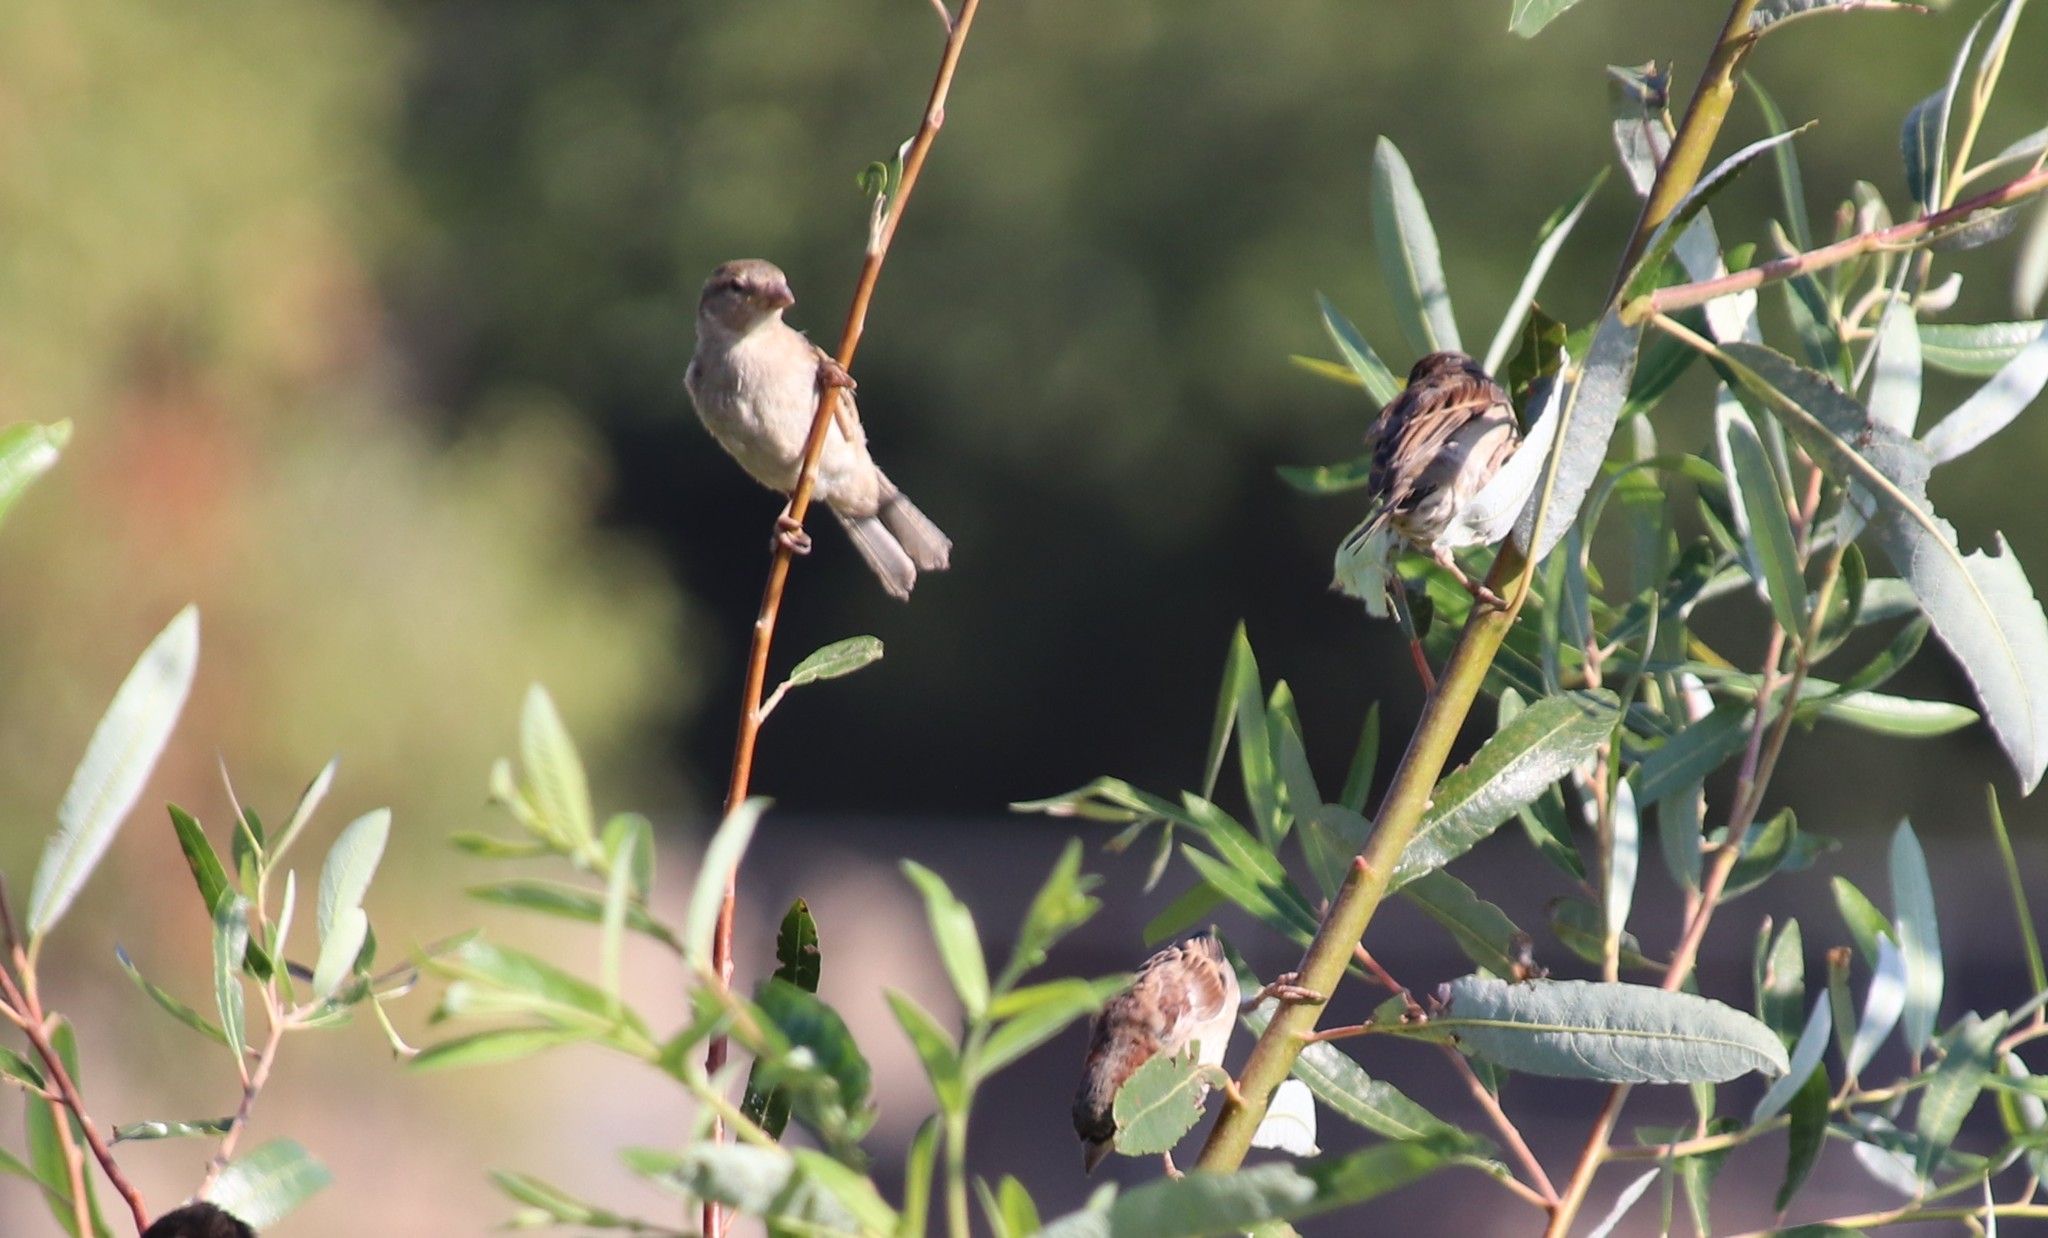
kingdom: Animalia
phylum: Chordata
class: Aves
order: Passeriformes
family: Passeridae
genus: Passer
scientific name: Passer domesticus
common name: House sparrow
